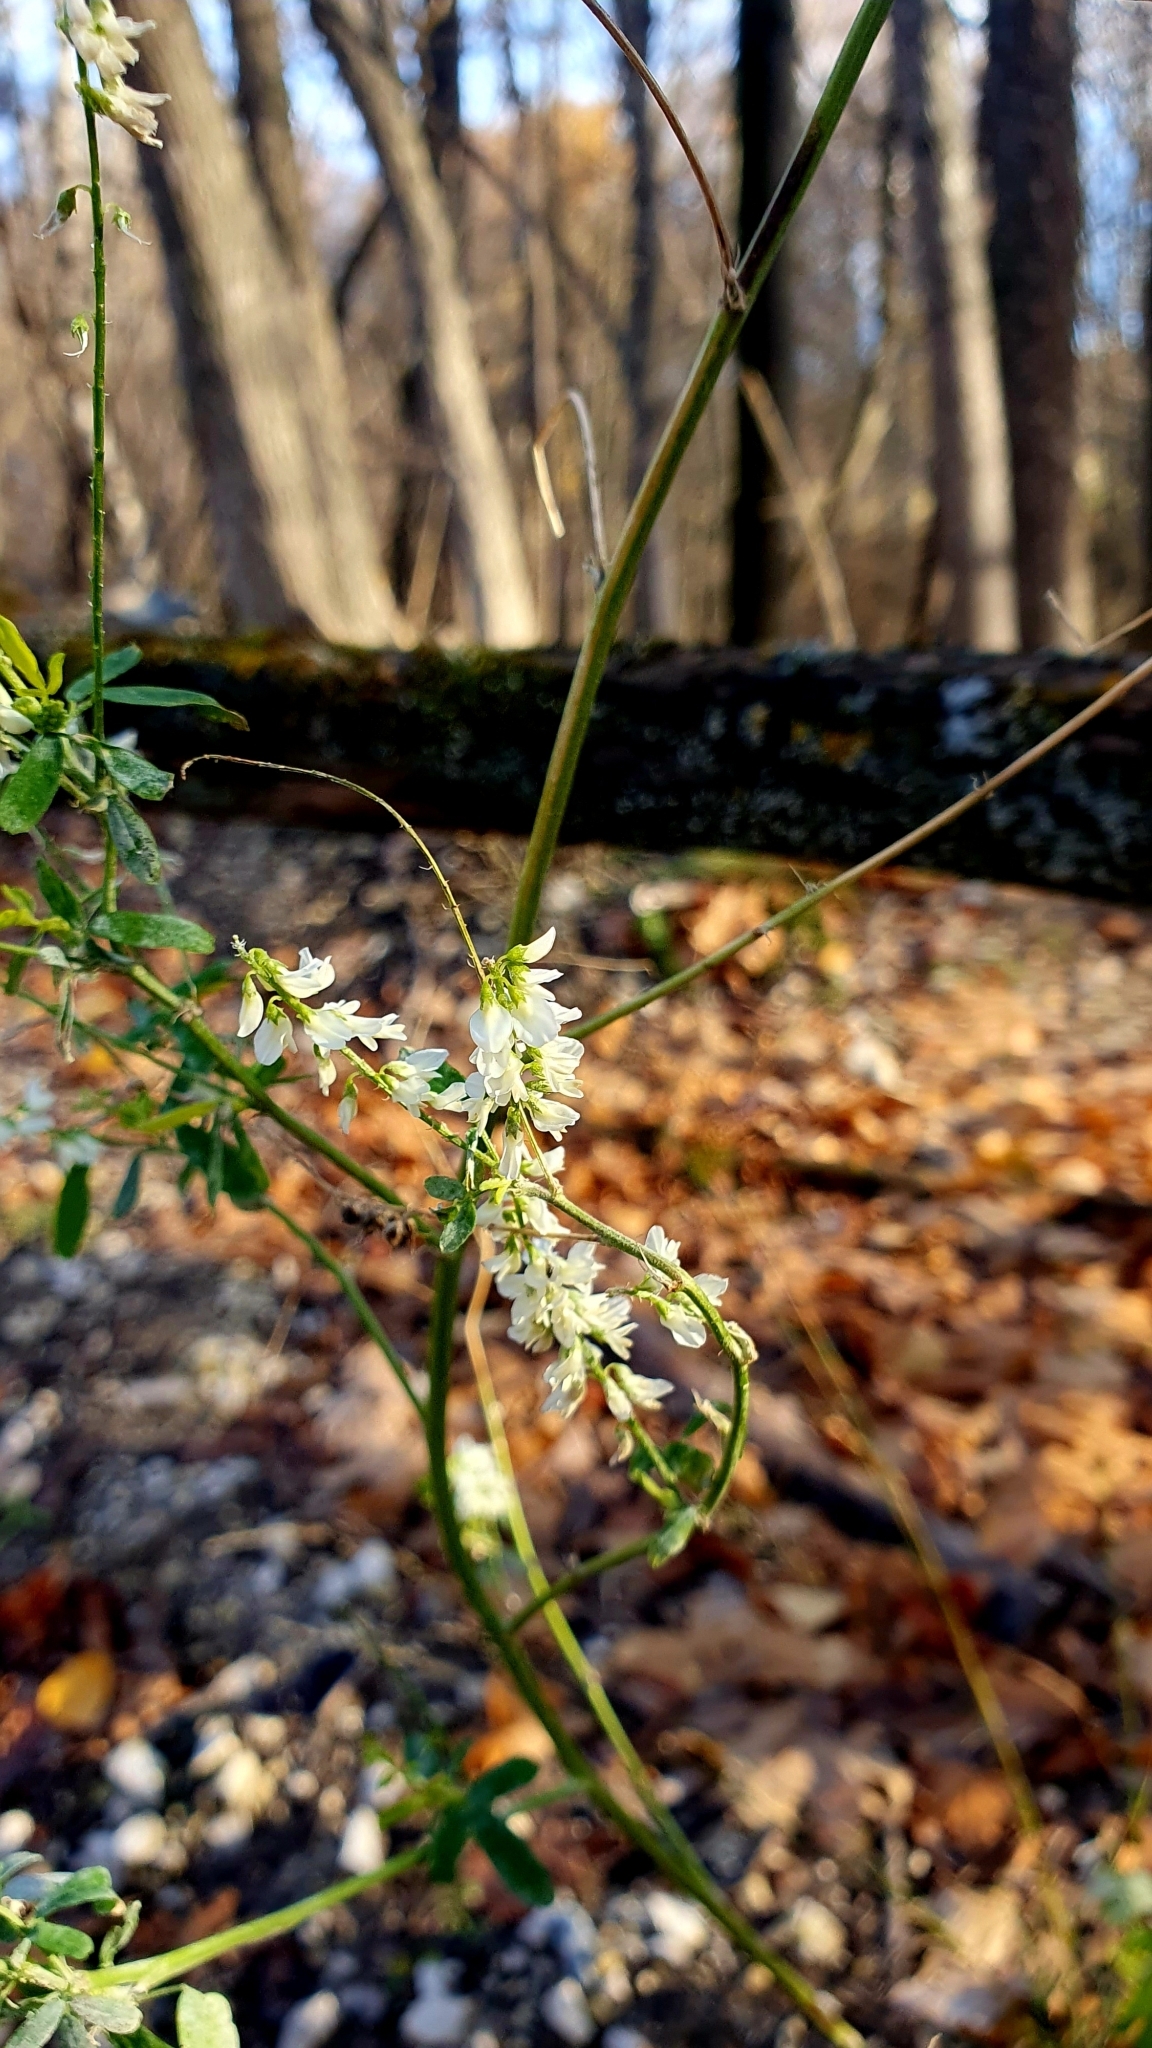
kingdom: Plantae
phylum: Tracheophyta
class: Magnoliopsida
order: Fabales
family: Fabaceae
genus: Melilotus
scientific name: Melilotus albus
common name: White melilot
